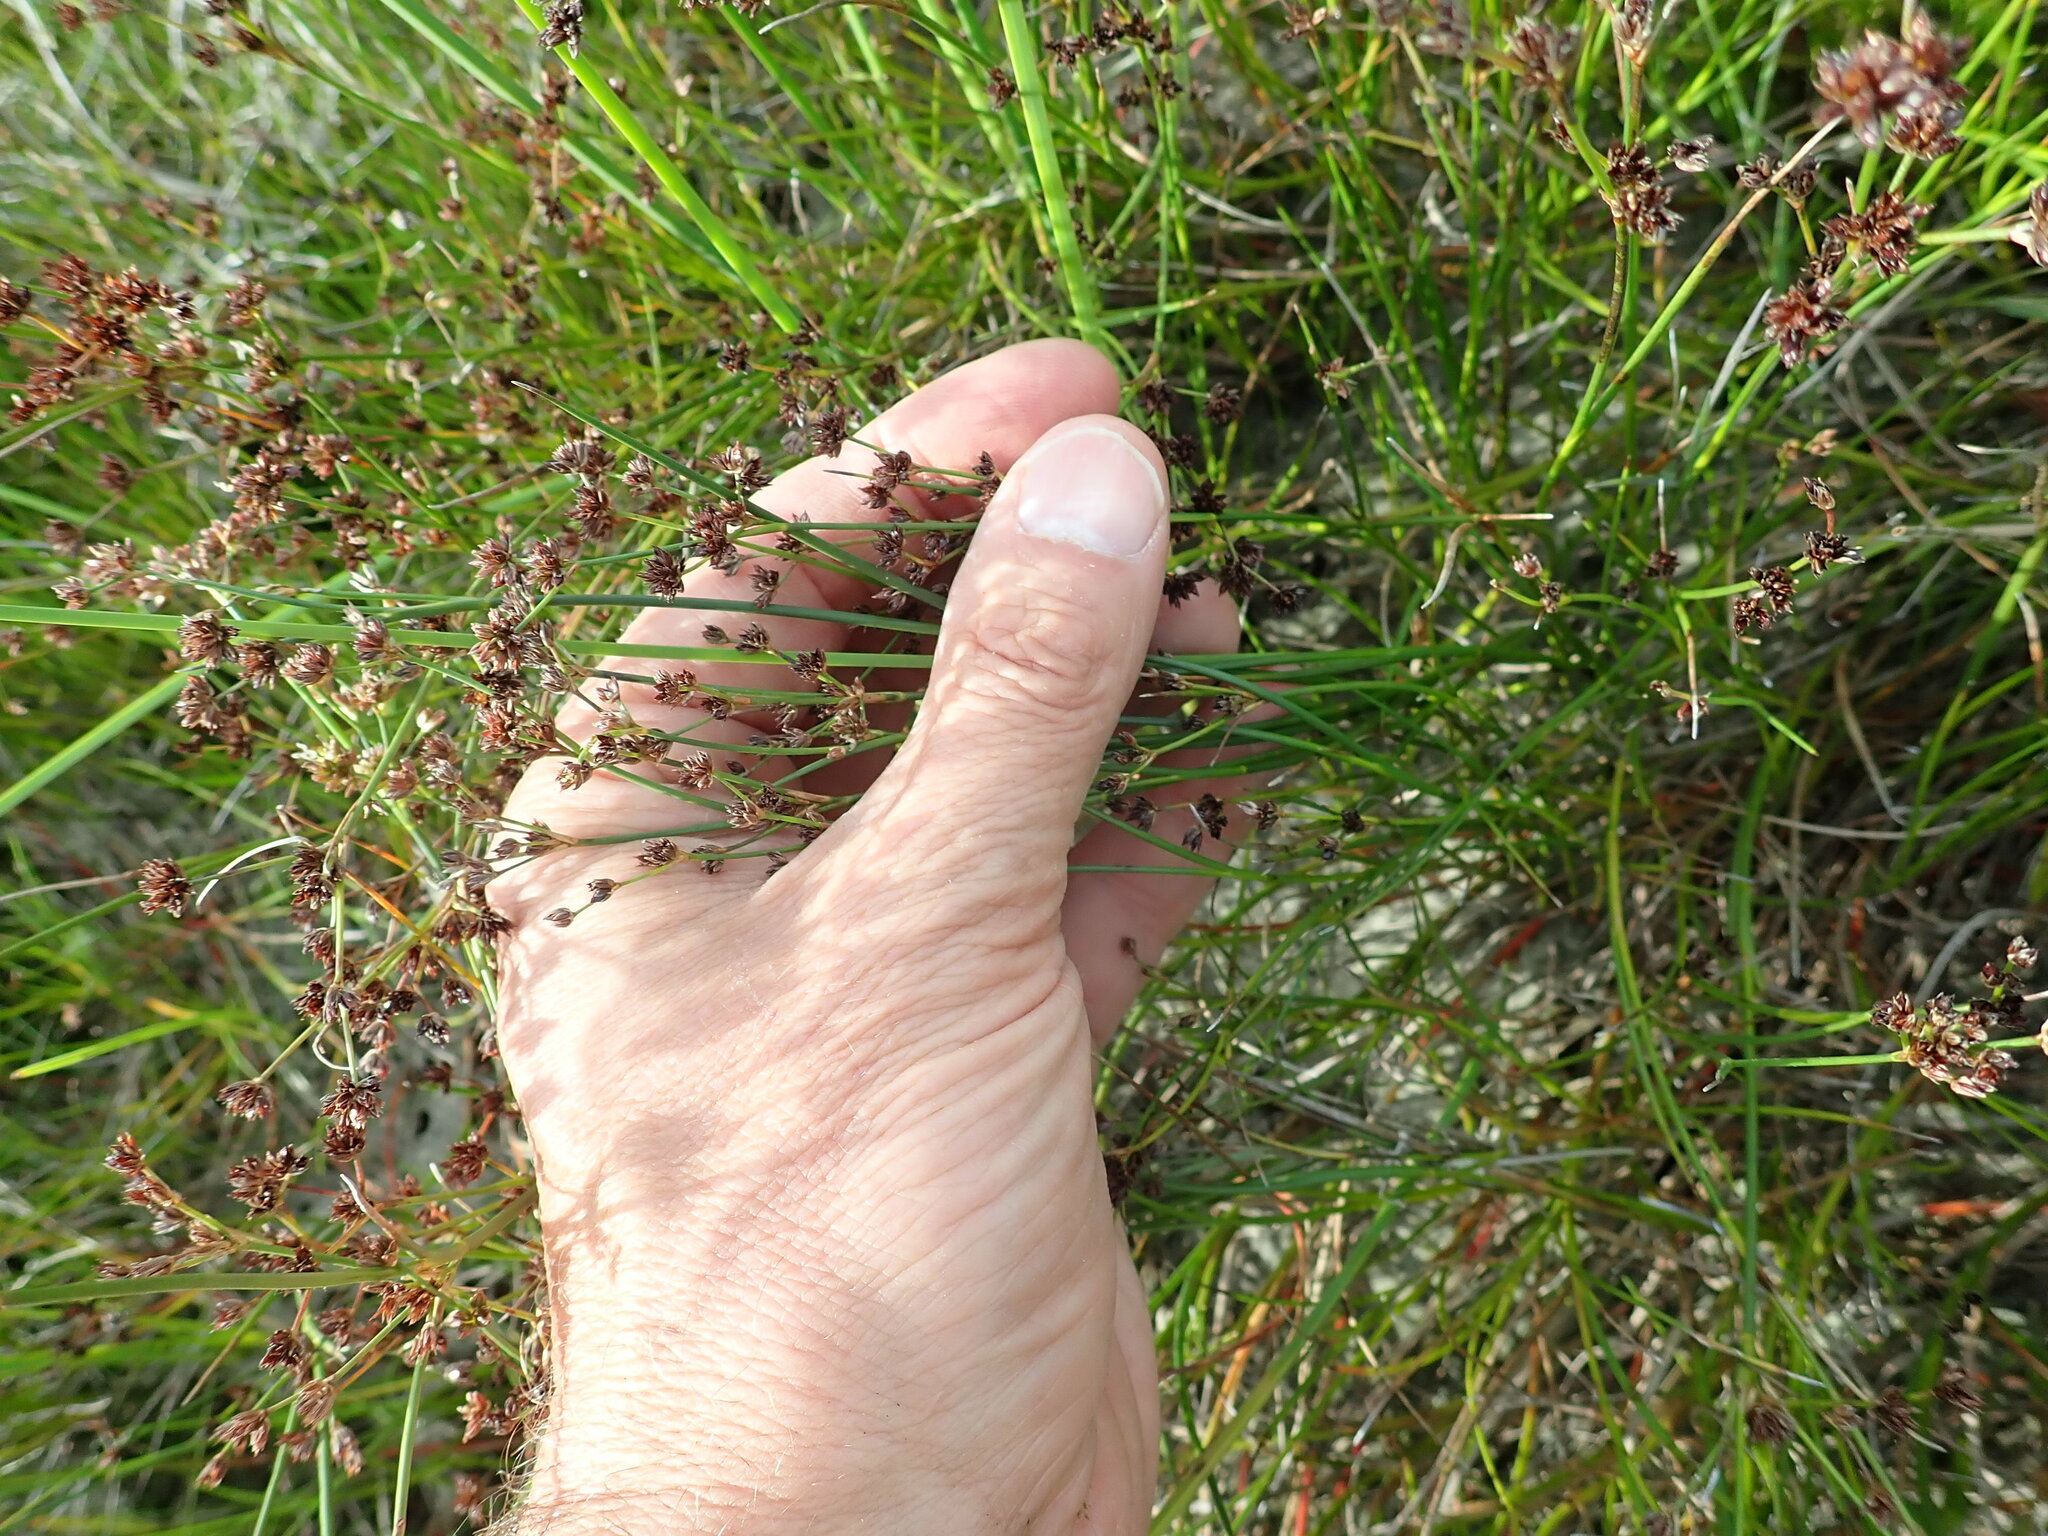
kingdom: Plantae
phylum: Tracheophyta
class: Liliopsida
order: Poales
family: Juncaceae
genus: Juncus
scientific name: Juncus articulatus
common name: Jointed rush
